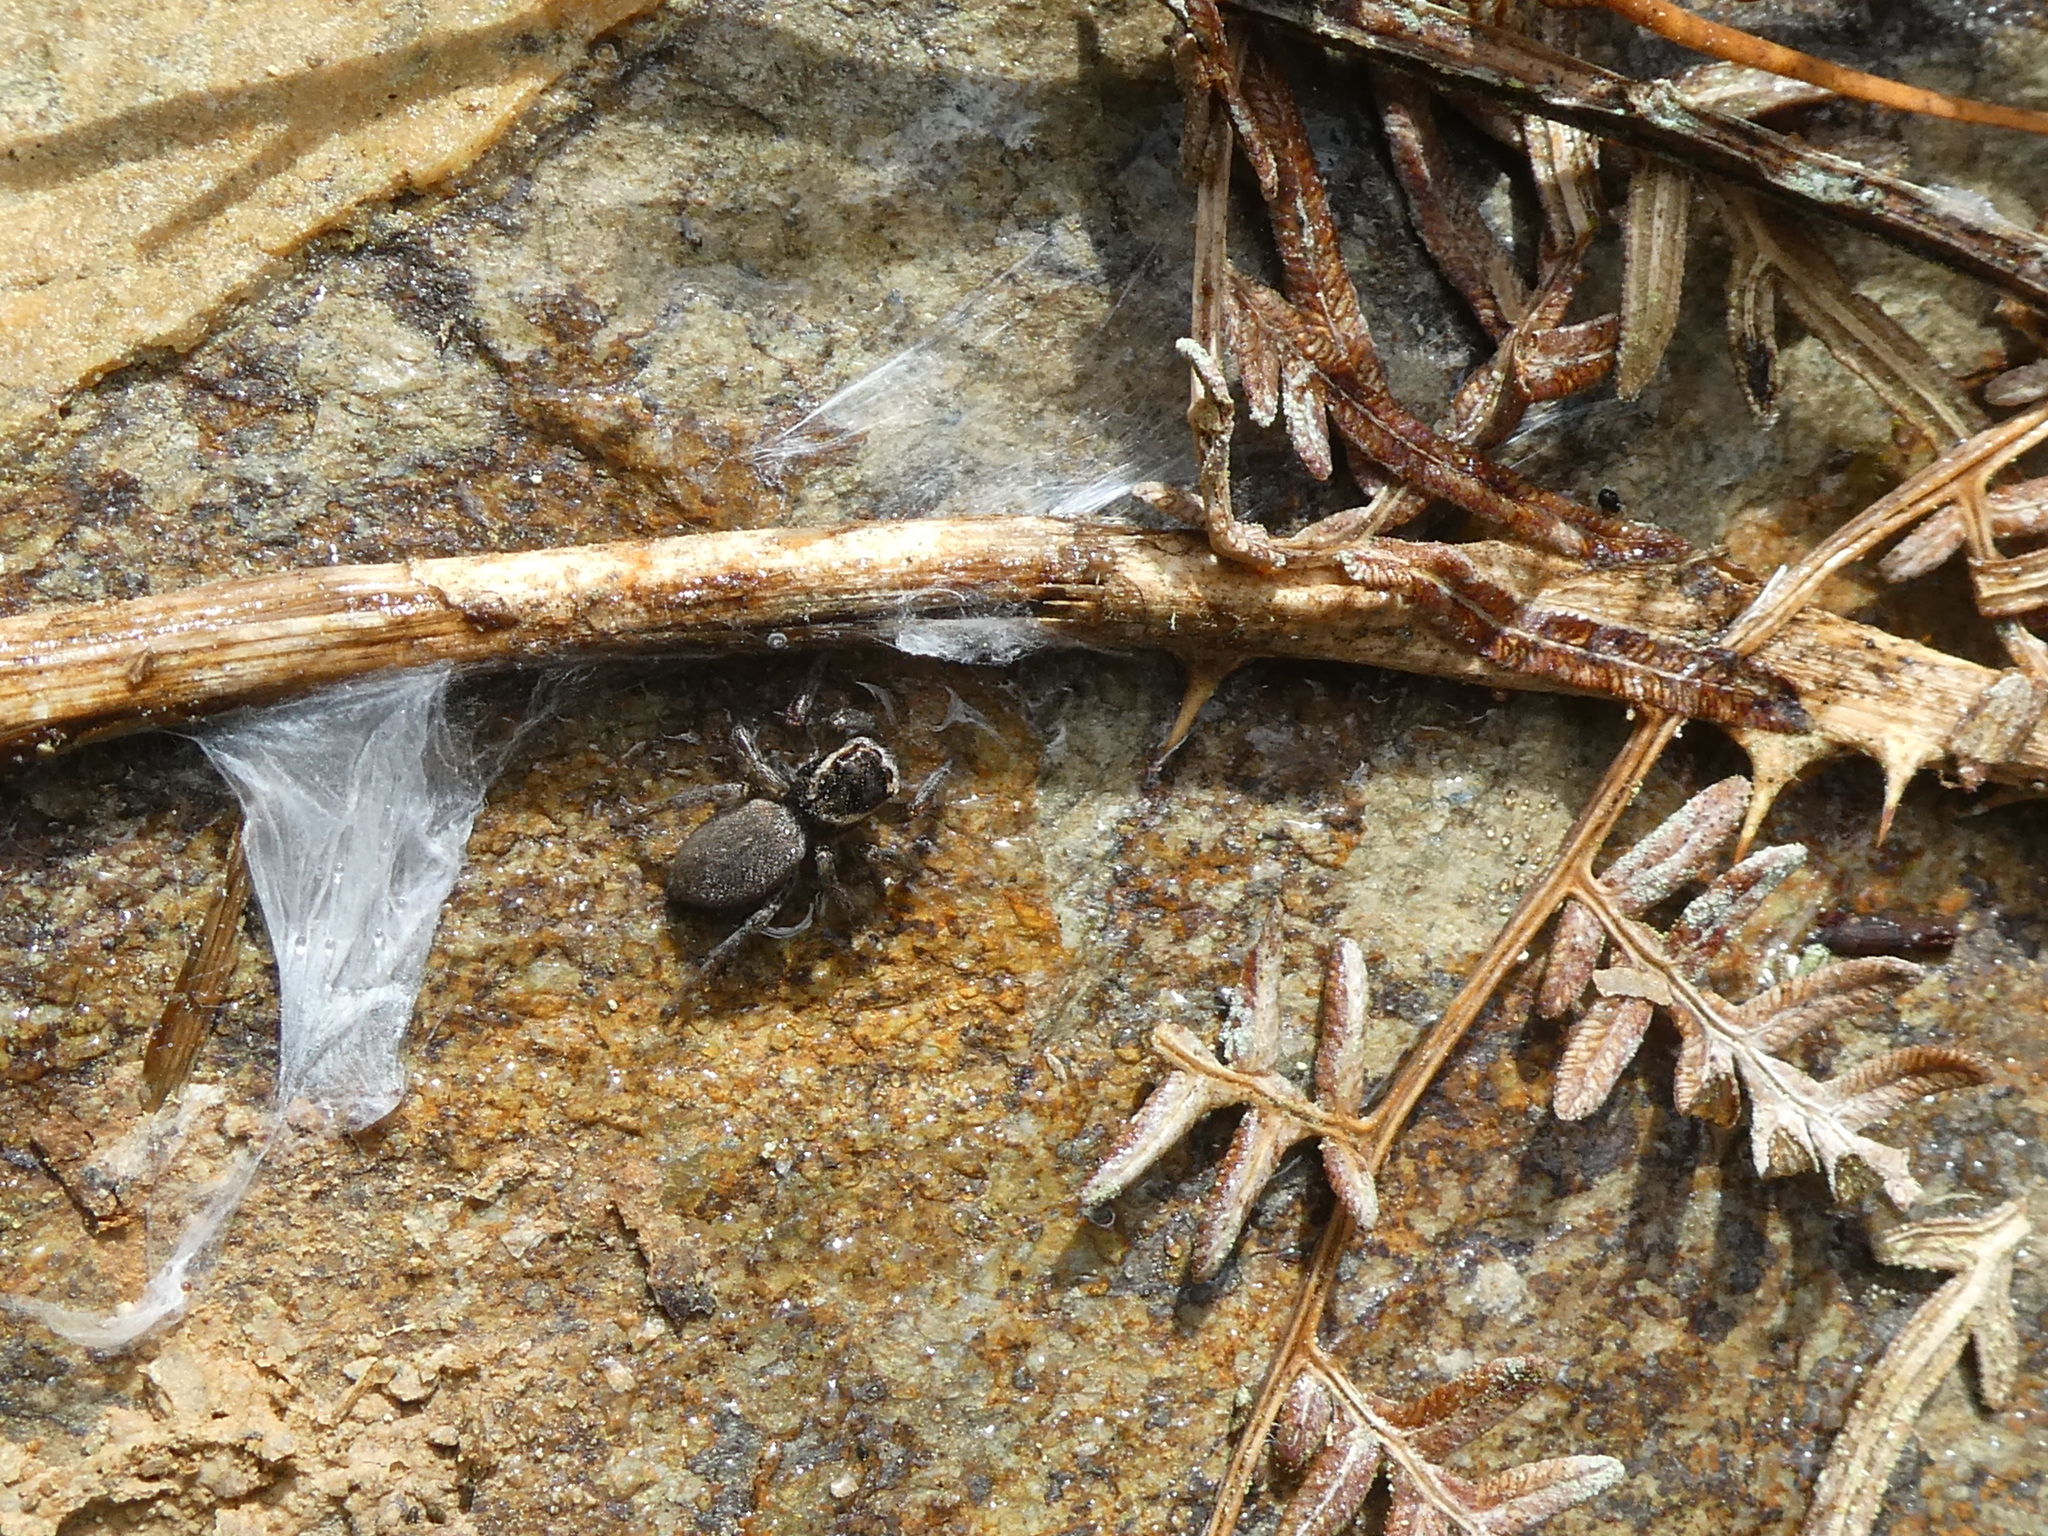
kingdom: Animalia
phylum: Arthropoda
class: Arachnida
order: Araneae
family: Salticidae
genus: Maratus
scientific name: Maratus griseus
